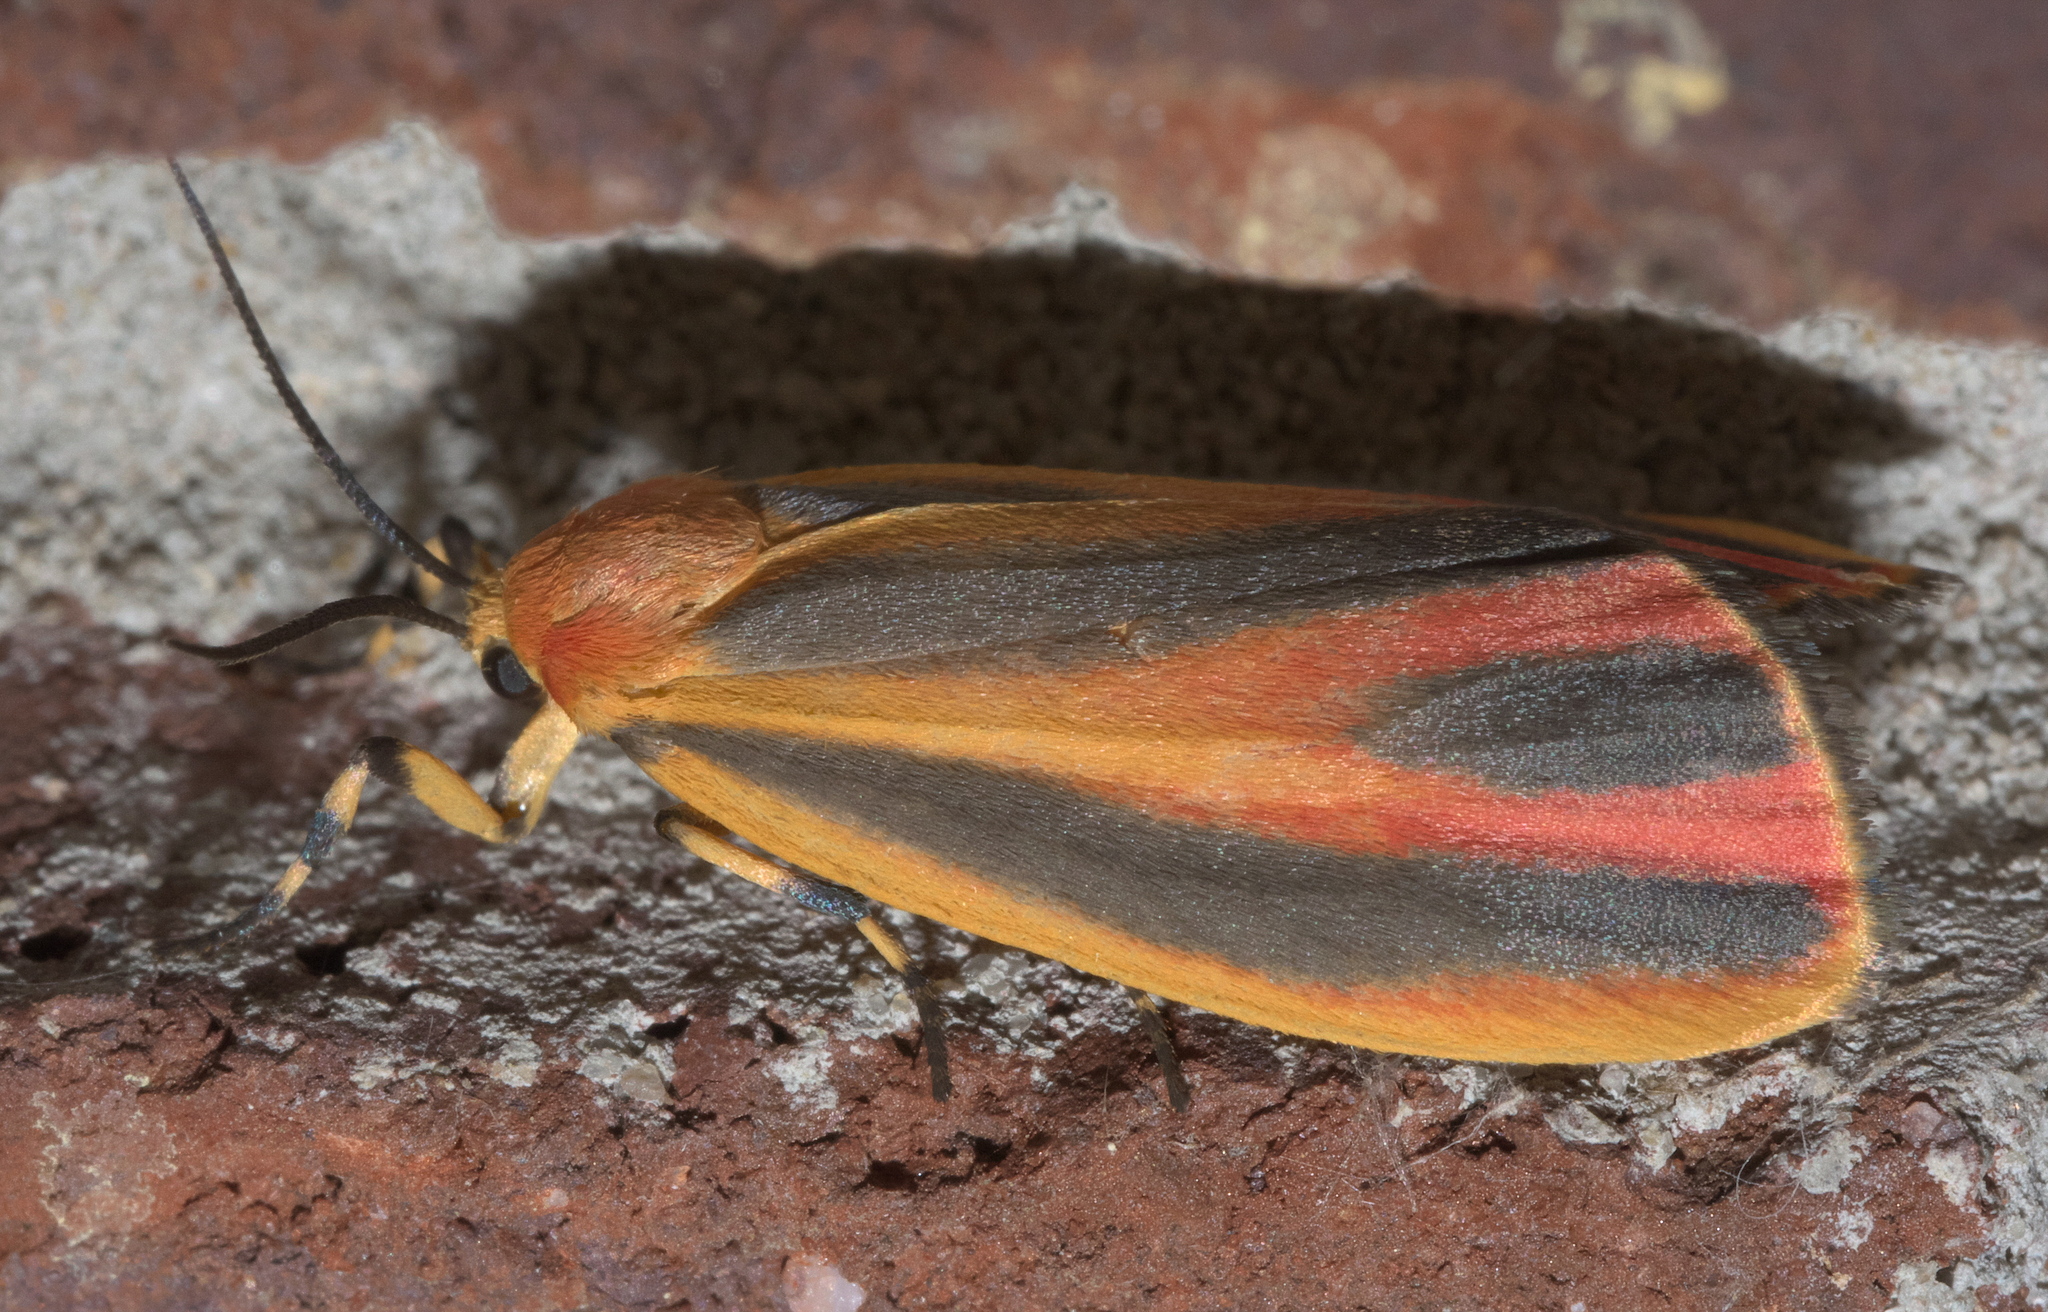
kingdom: Animalia
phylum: Arthropoda
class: Insecta
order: Lepidoptera
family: Erebidae
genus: Hypoprepia
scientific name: Hypoprepia fucosa
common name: Painted lichen moth
